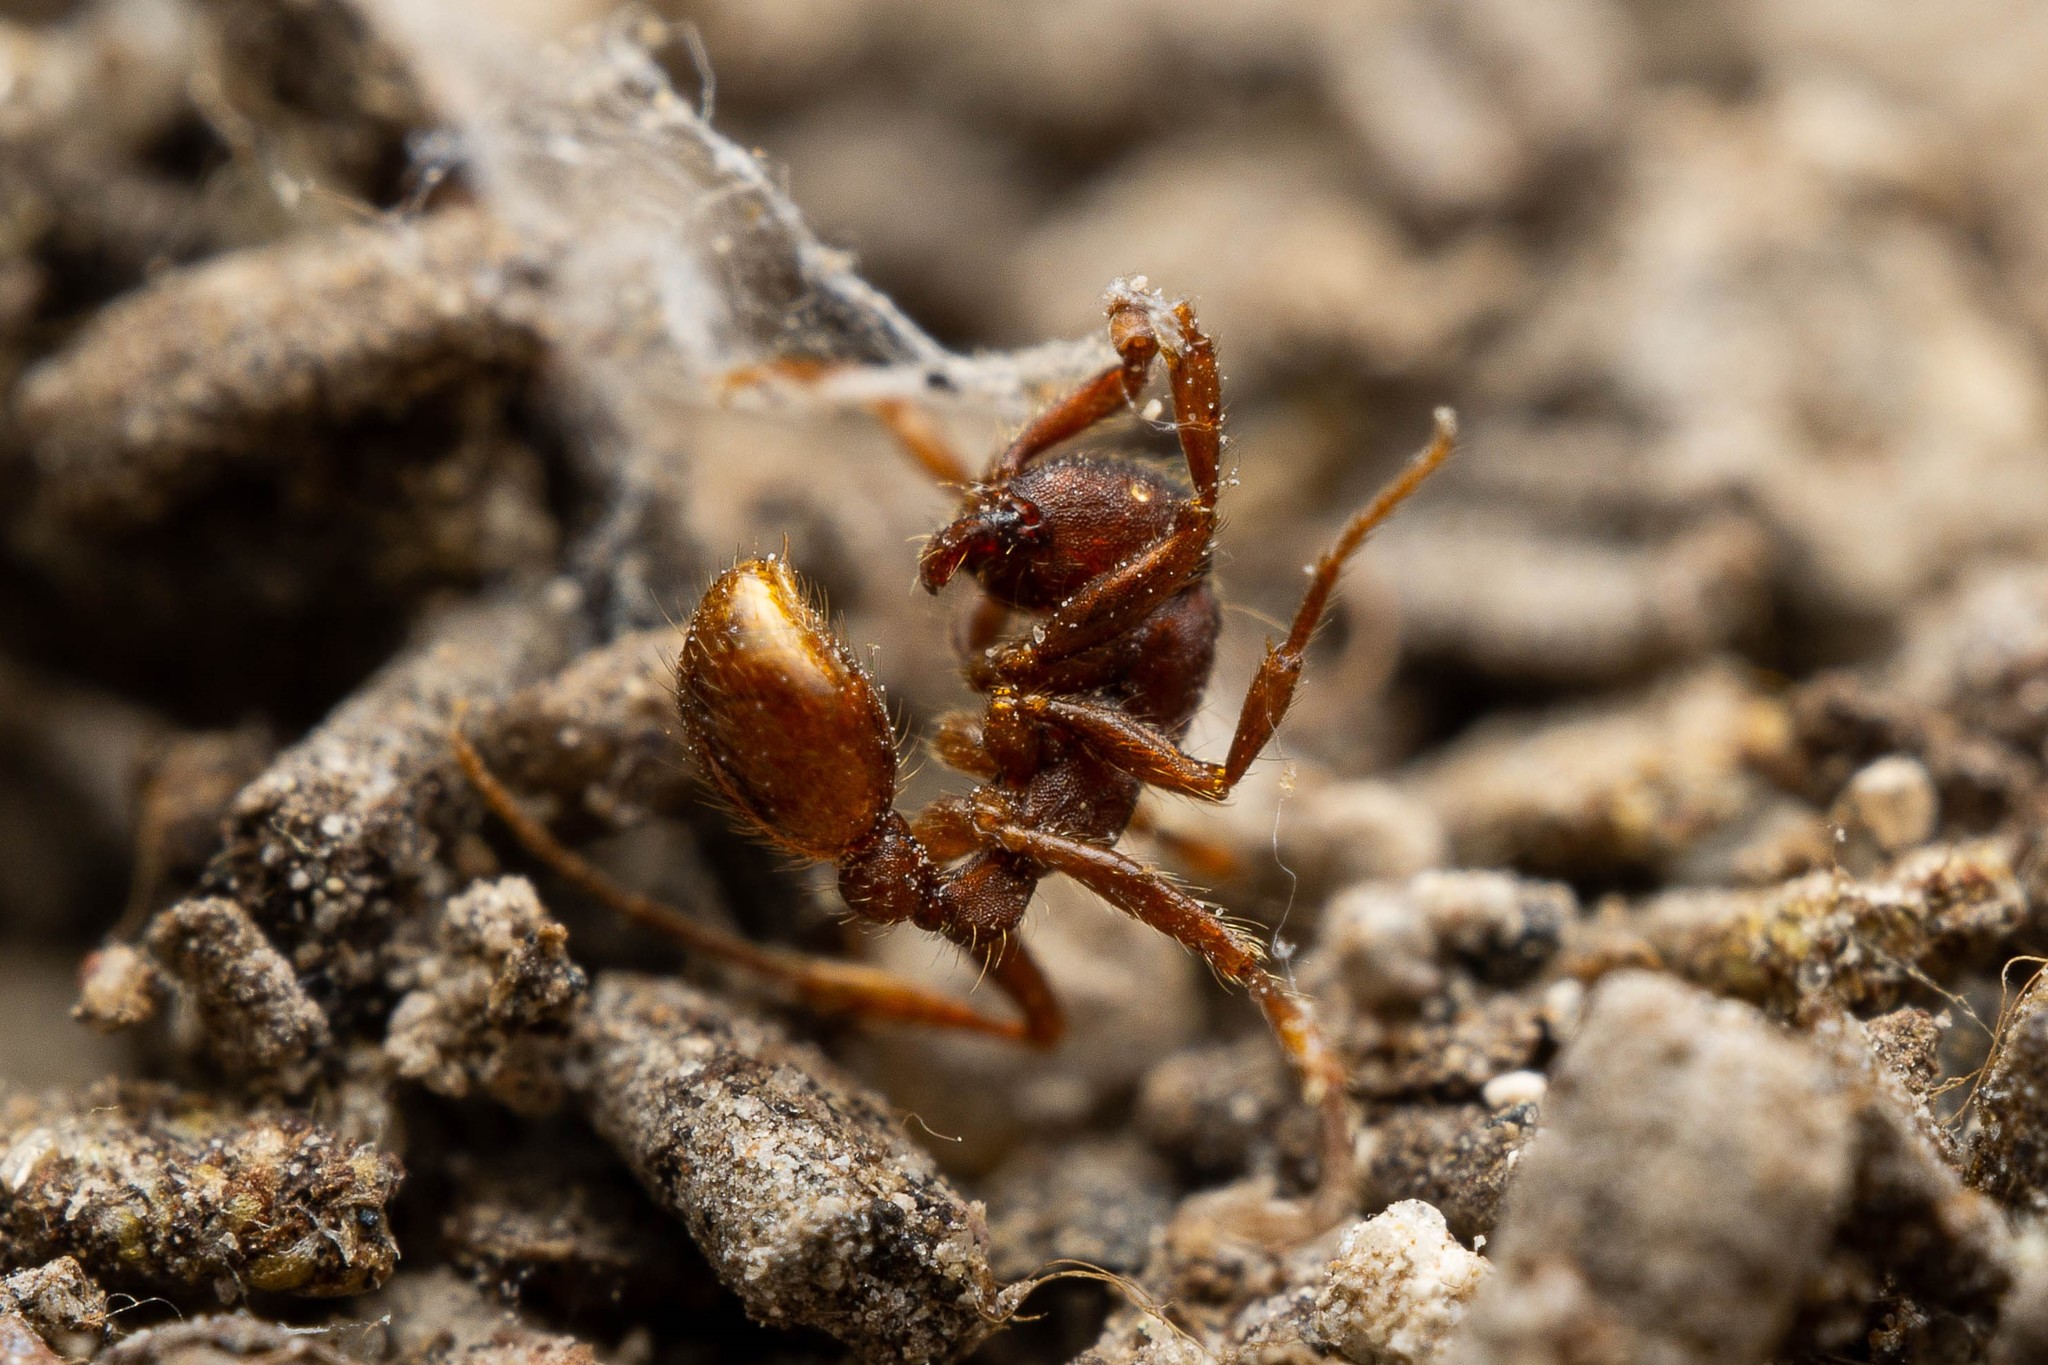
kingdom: Animalia
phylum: Arthropoda
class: Insecta
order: Hymenoptera
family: Formicidae
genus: Neivamyrmex
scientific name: Neivamyrmex nigrescens
